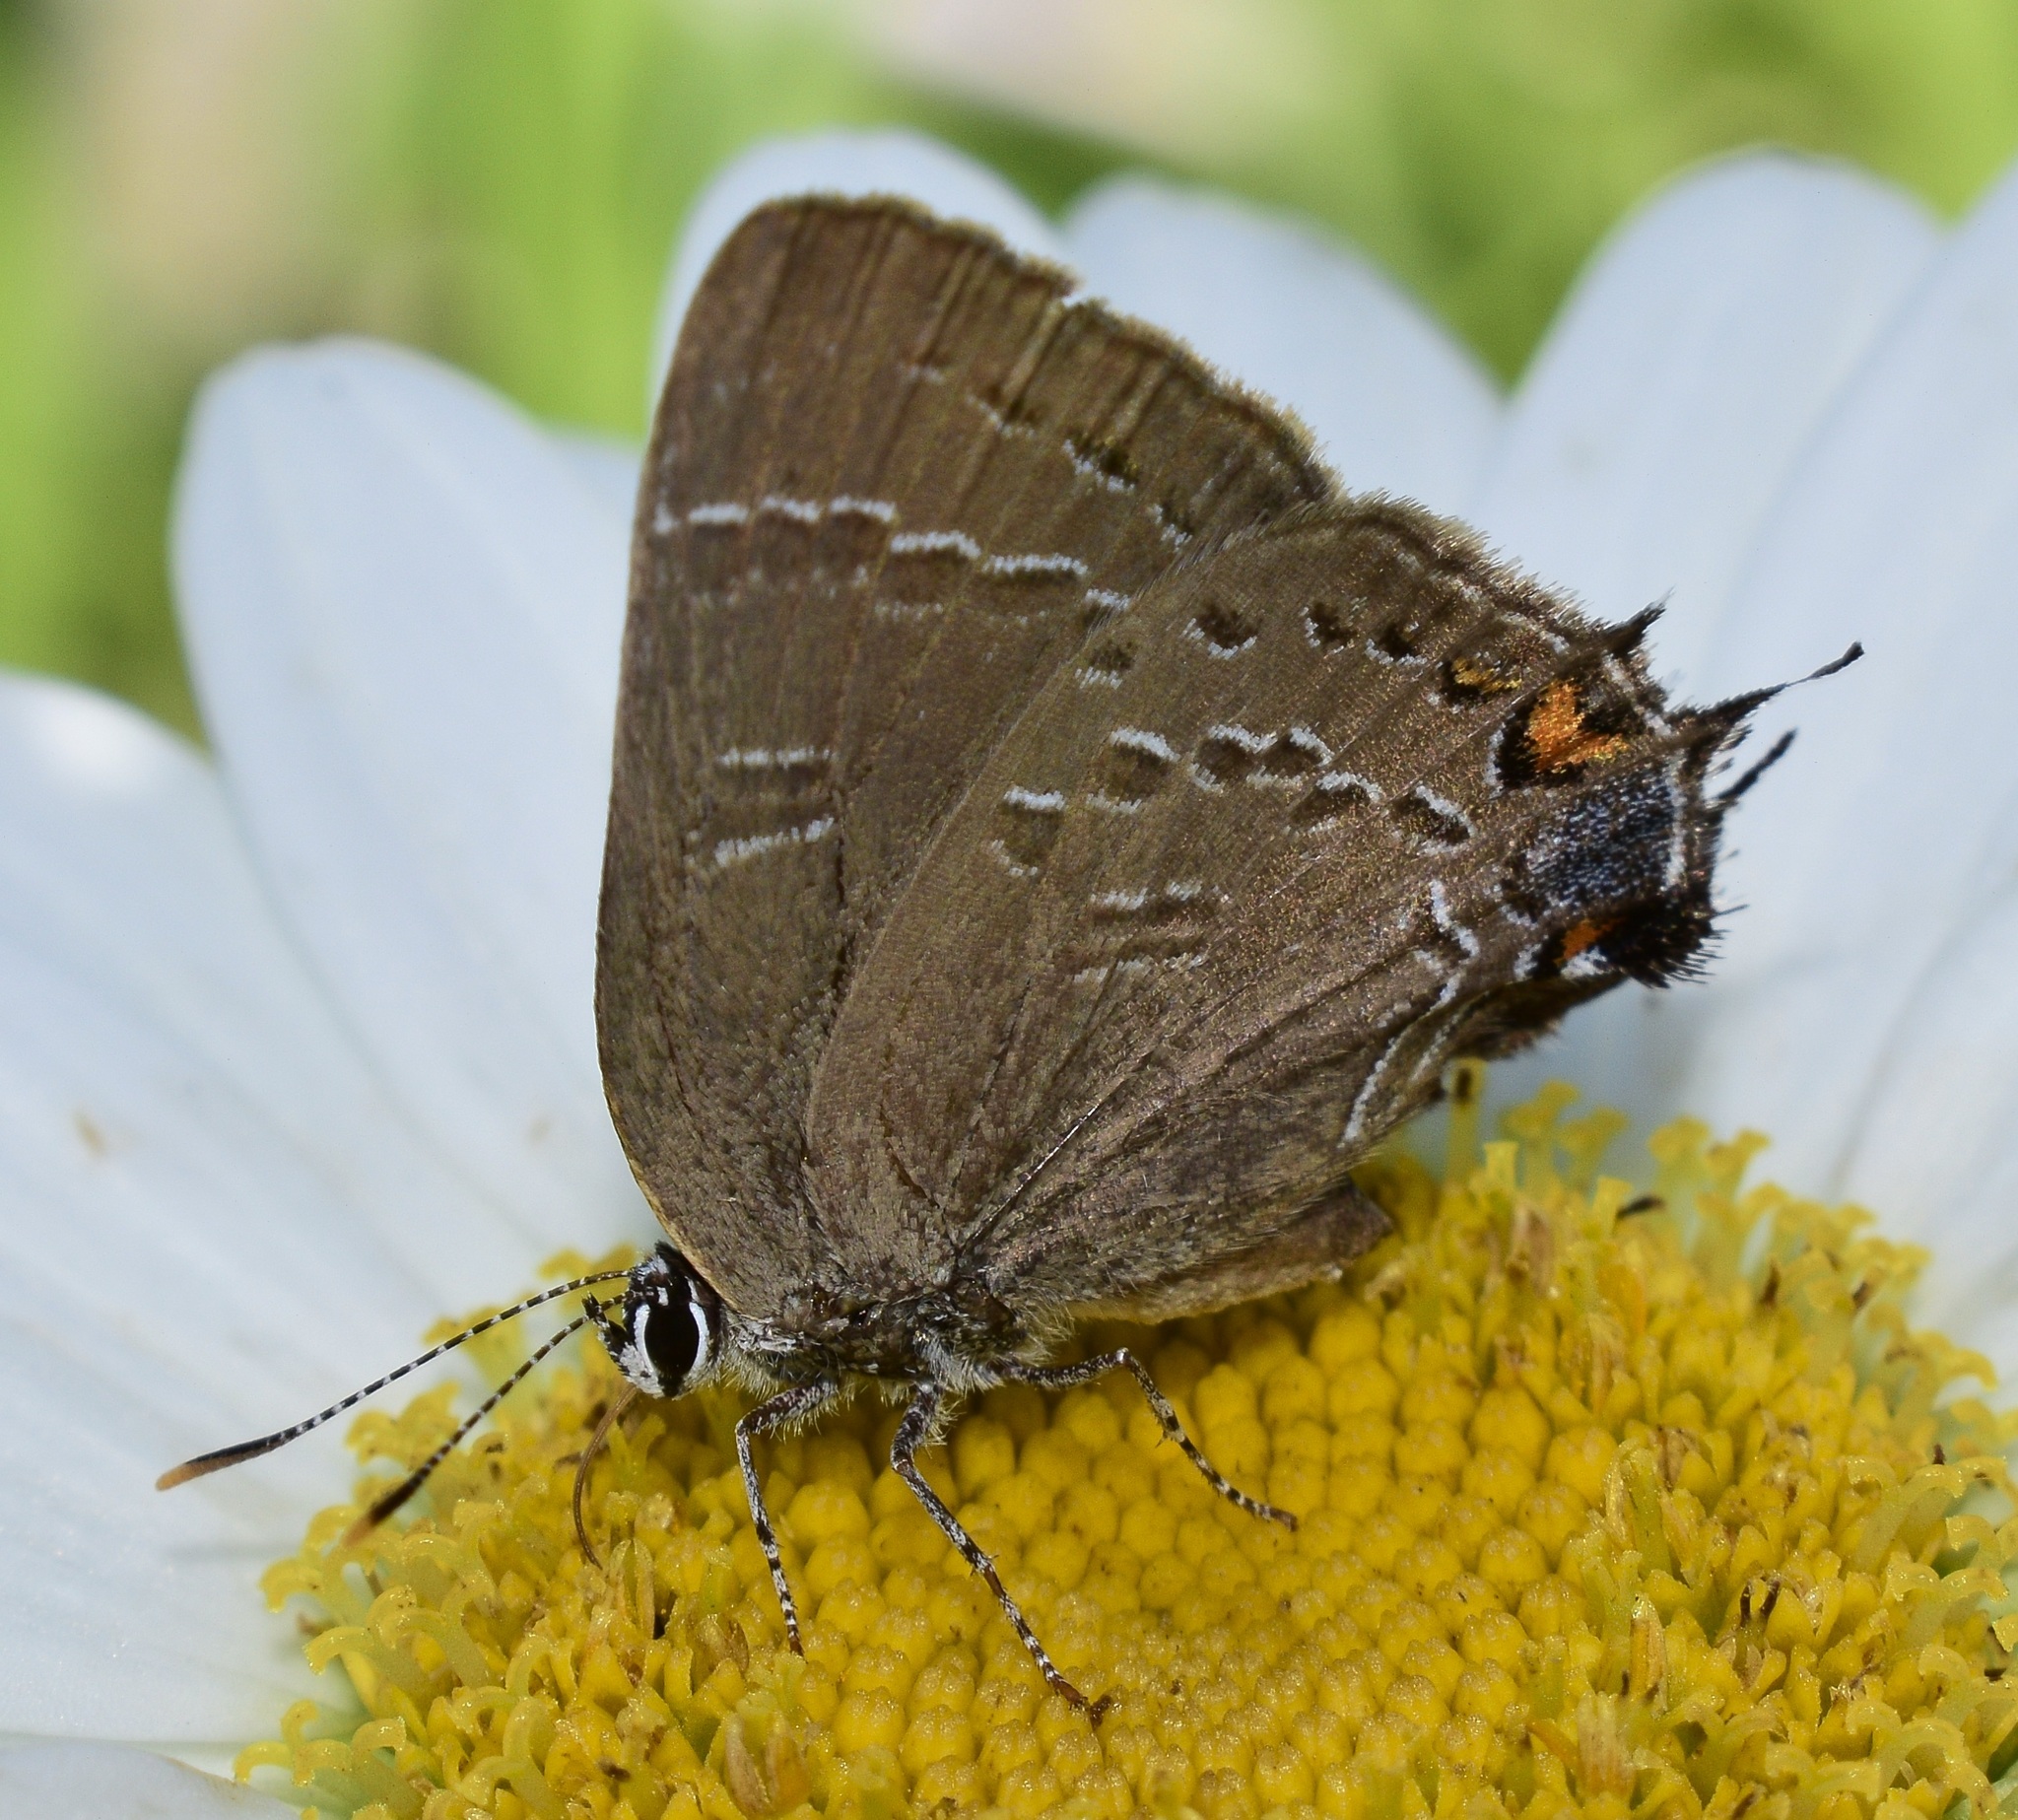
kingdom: Animalia
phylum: Arthropoda
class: Insecta
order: Lepidoptera
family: Lycaenidae
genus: Satyrium
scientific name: Satyrium calanus
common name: Banded hairstreak
